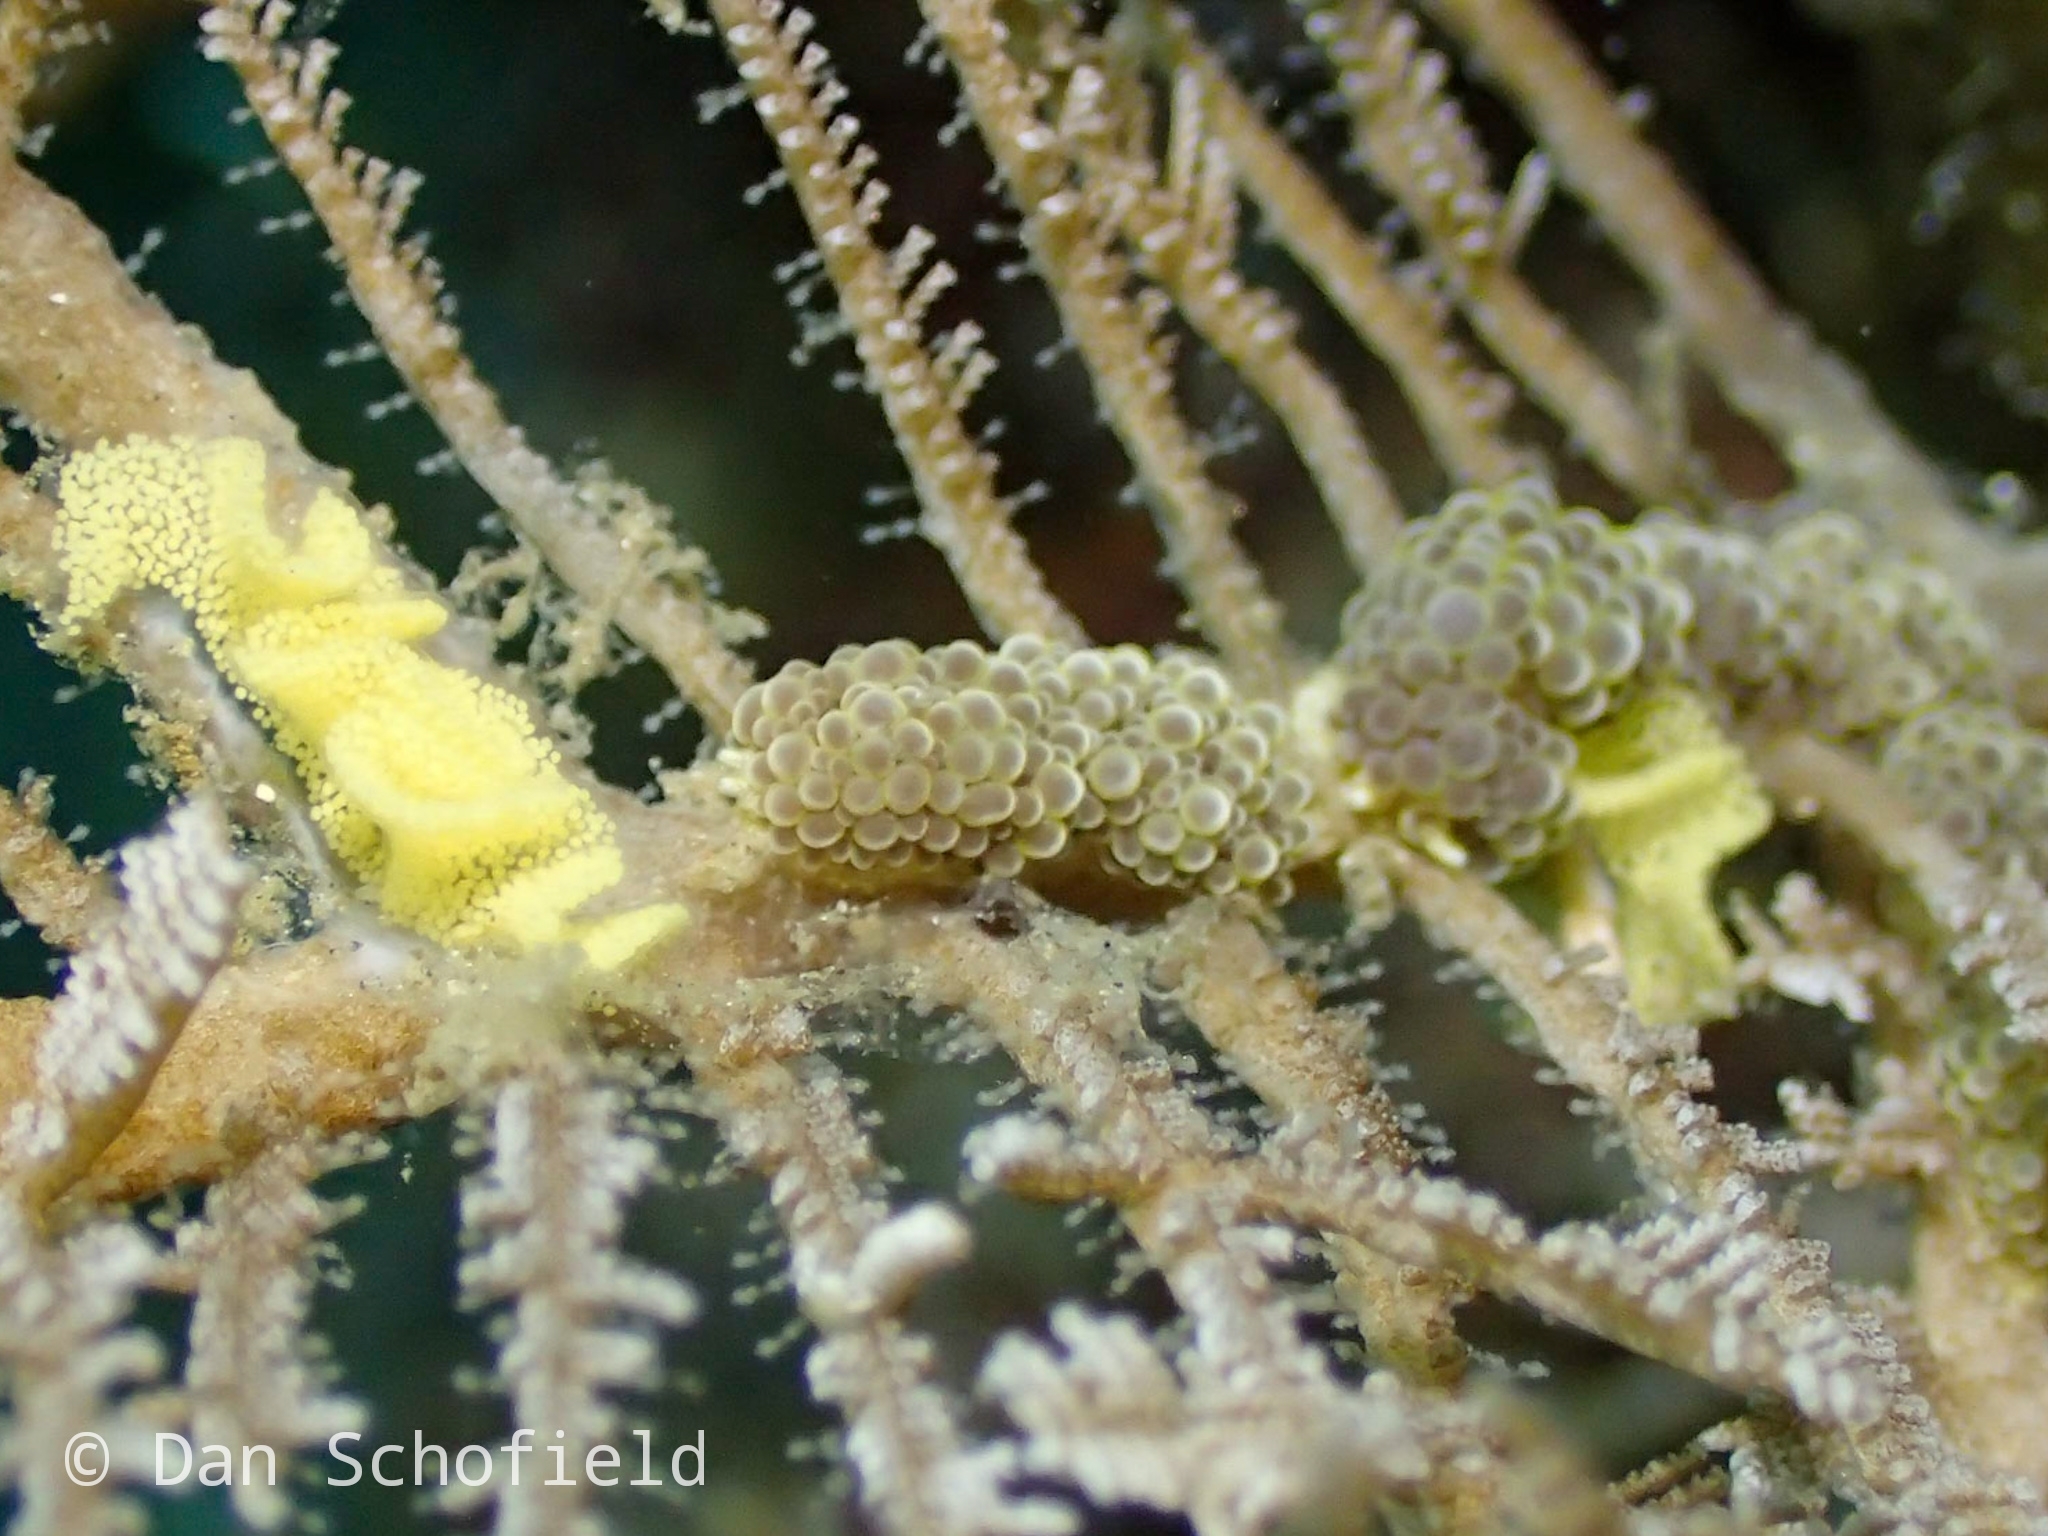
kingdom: Animalia
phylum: Mollusca
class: Gastropoda
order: Nudibranchia
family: Dotidae
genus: Doto
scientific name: Doto ussi
